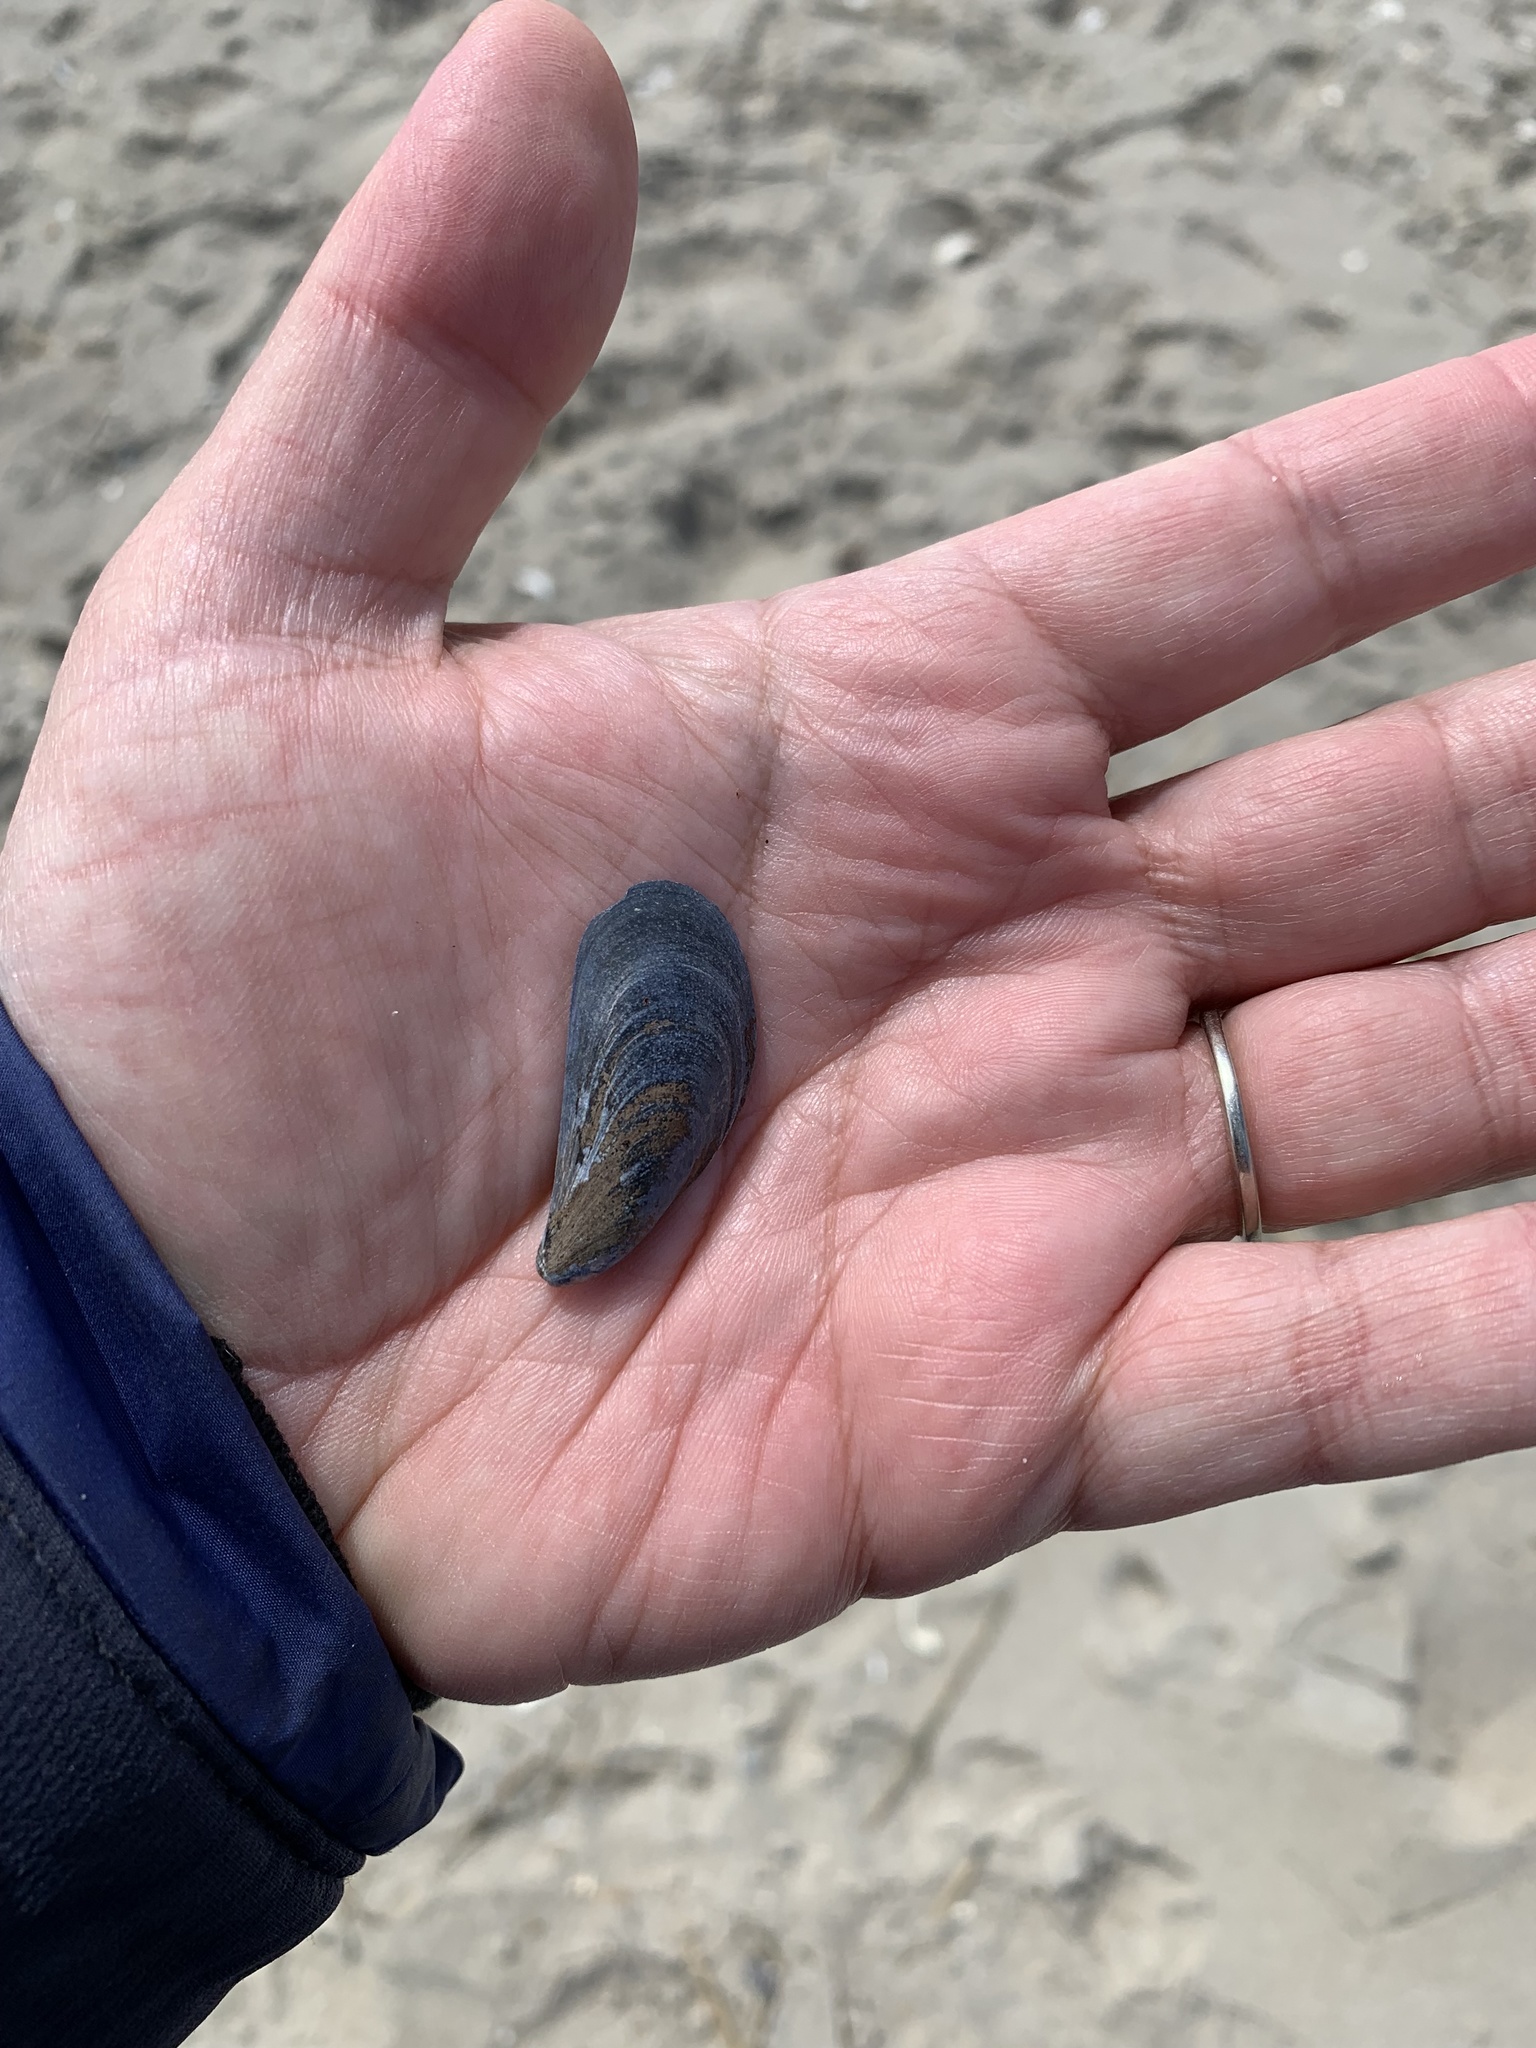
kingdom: Animalia
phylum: Mollusca
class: Bivalvia
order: Mytilida
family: Mytilidae
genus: Mytilus
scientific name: Mytilus edulis
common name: Blue mussel
